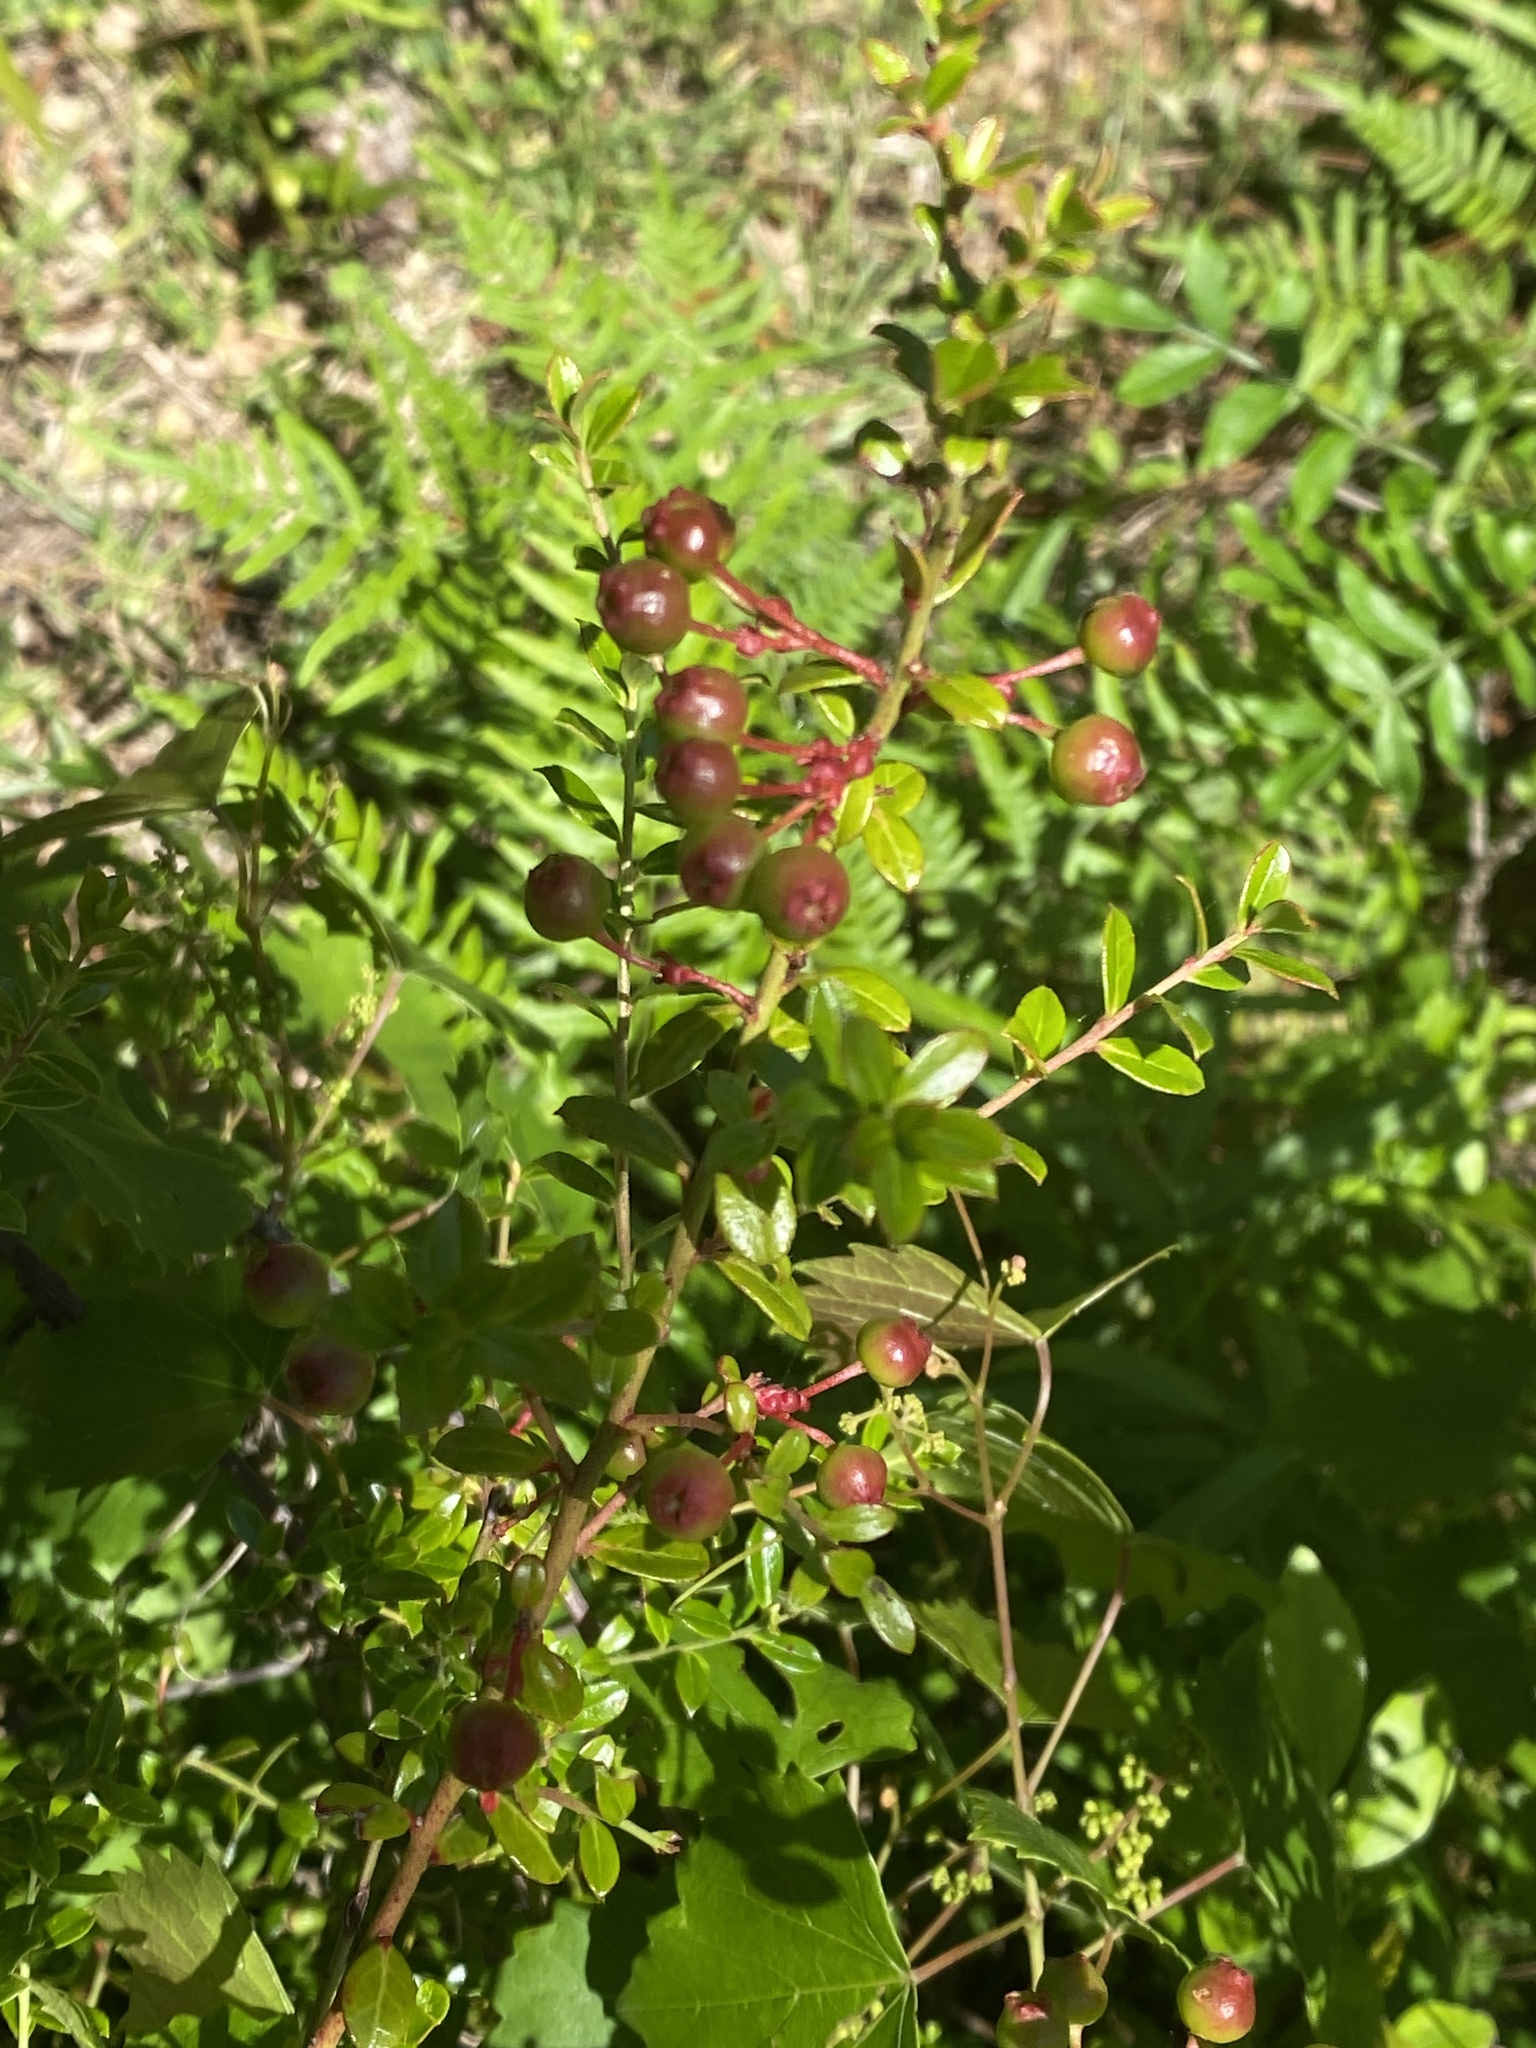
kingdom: Plantae
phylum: Tracheophyta
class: Magnoliopsida
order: Ericales
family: Ericaceae
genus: Vaccinium
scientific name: Vaccinium myrsinites
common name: Evergreen blueberry
